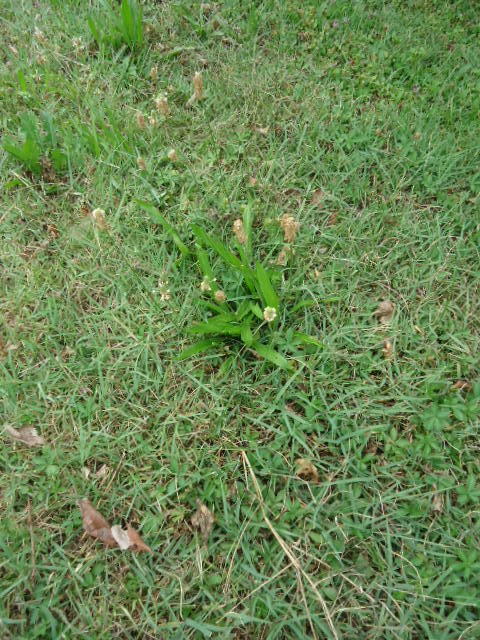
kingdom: Plantae
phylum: Tracheophyta
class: Magnoliopsida
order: Lamiales
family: Plantaginaceae
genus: Plantago
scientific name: Plantago lanceolata
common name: Ribwort plantain
